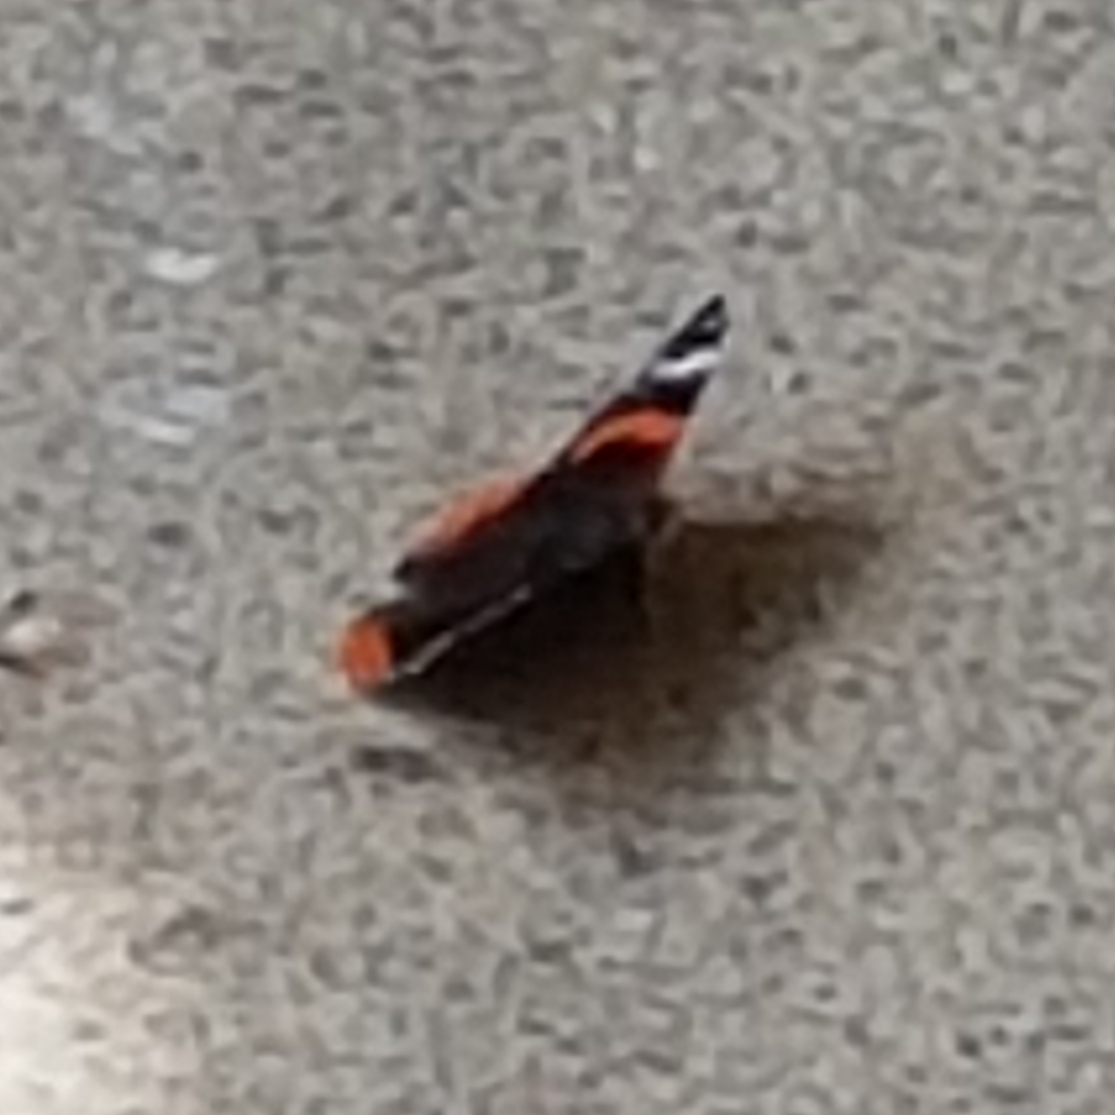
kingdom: Animalia
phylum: Arthropoda
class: Insecta
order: Lepidoptera
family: Nymphalidae
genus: Vanessa
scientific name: Vanessa atalanta
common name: Red admiral
